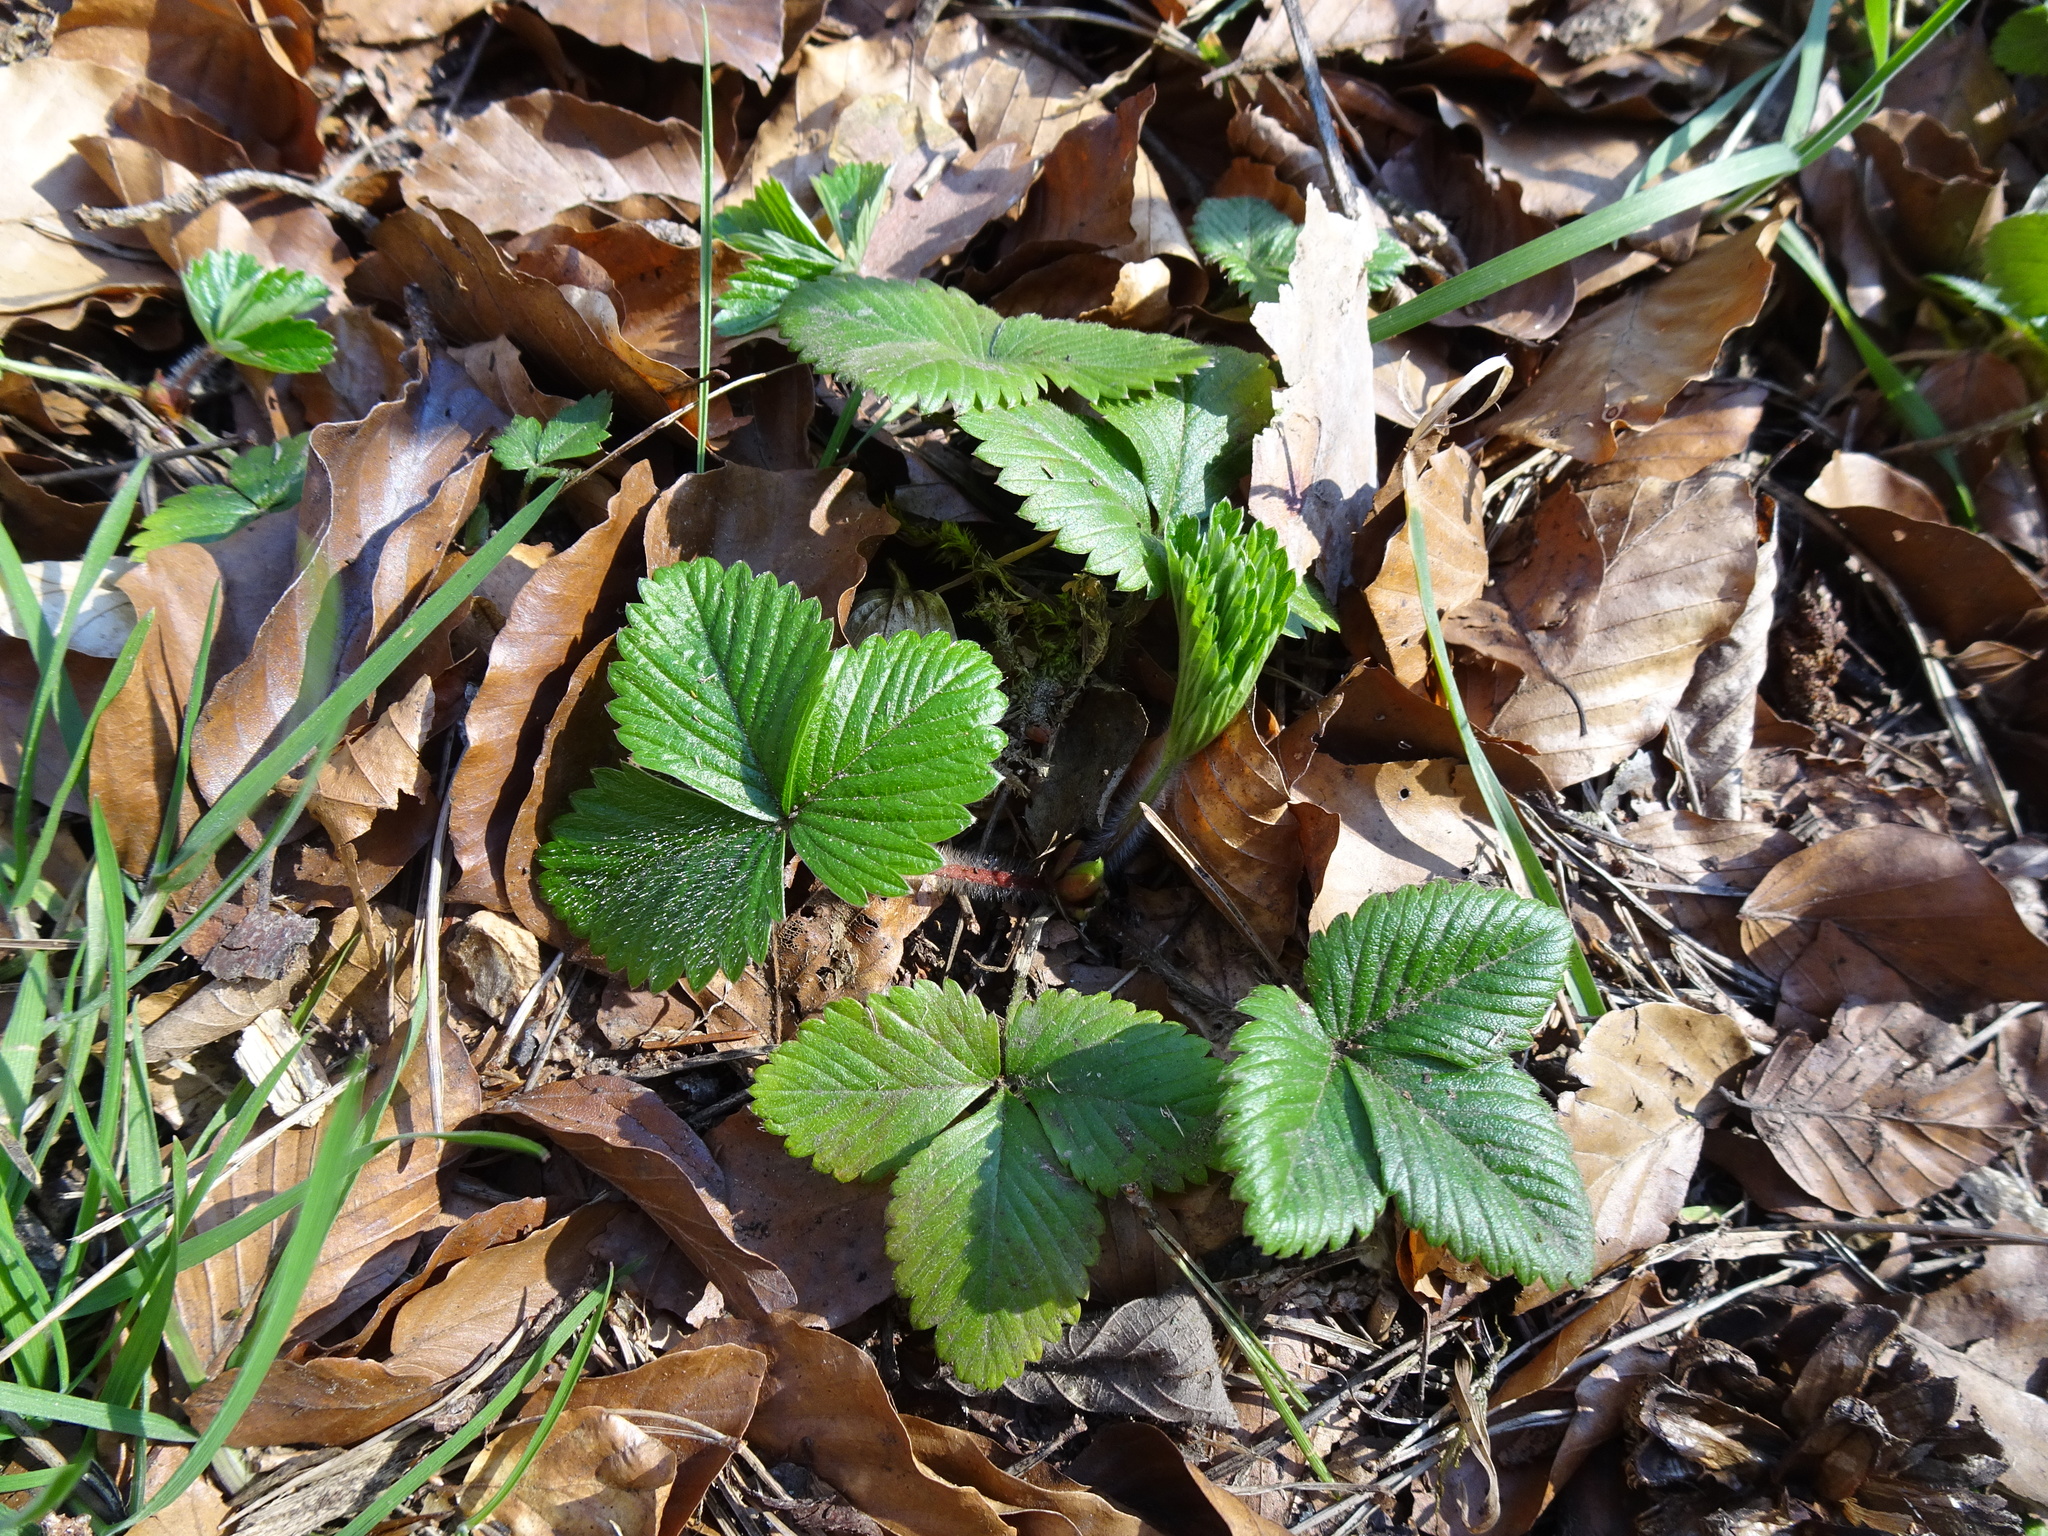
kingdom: Plantae
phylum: Tracheophyta
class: Magnoliopsida
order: Rosales
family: Rosaceae
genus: Fragaria
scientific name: Fragaria vesca
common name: Wild strawberry
